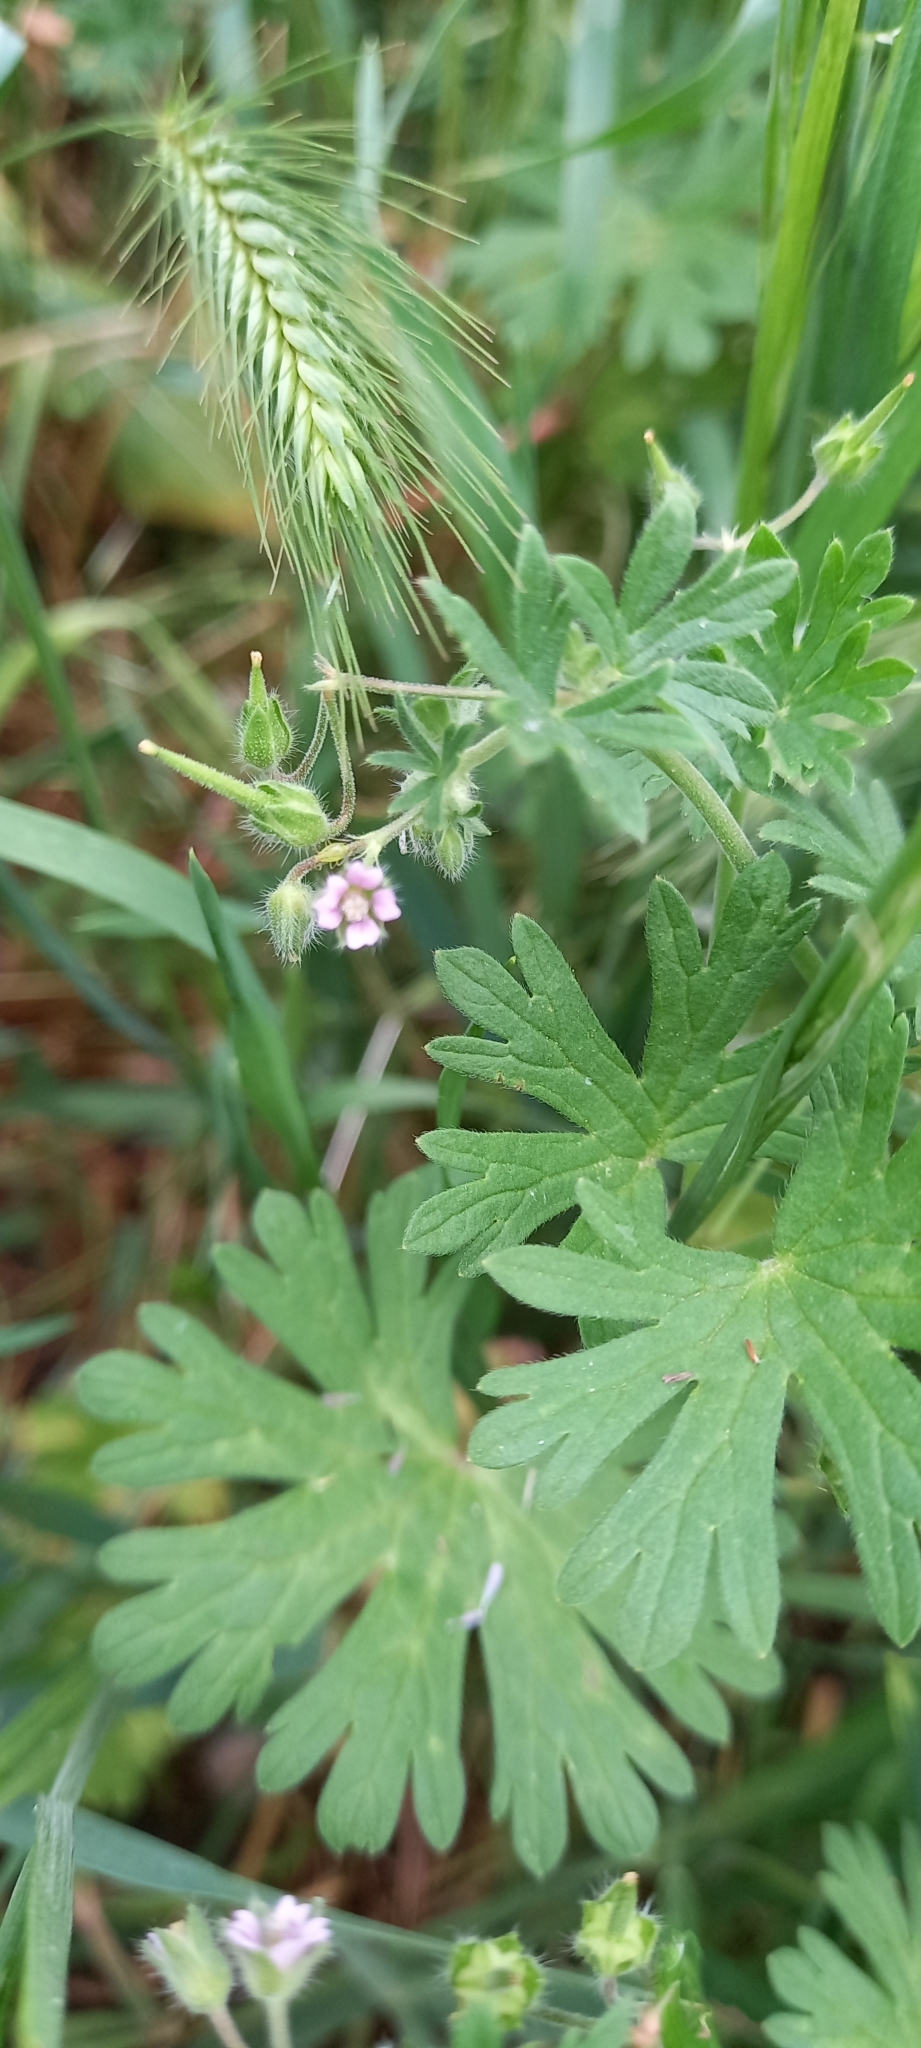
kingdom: Plantae
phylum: Tracheophyta
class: Magnoliopsida
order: Geraniales
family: Geraniaceae
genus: Geranium
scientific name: Geranium pusillum
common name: Small geranium
